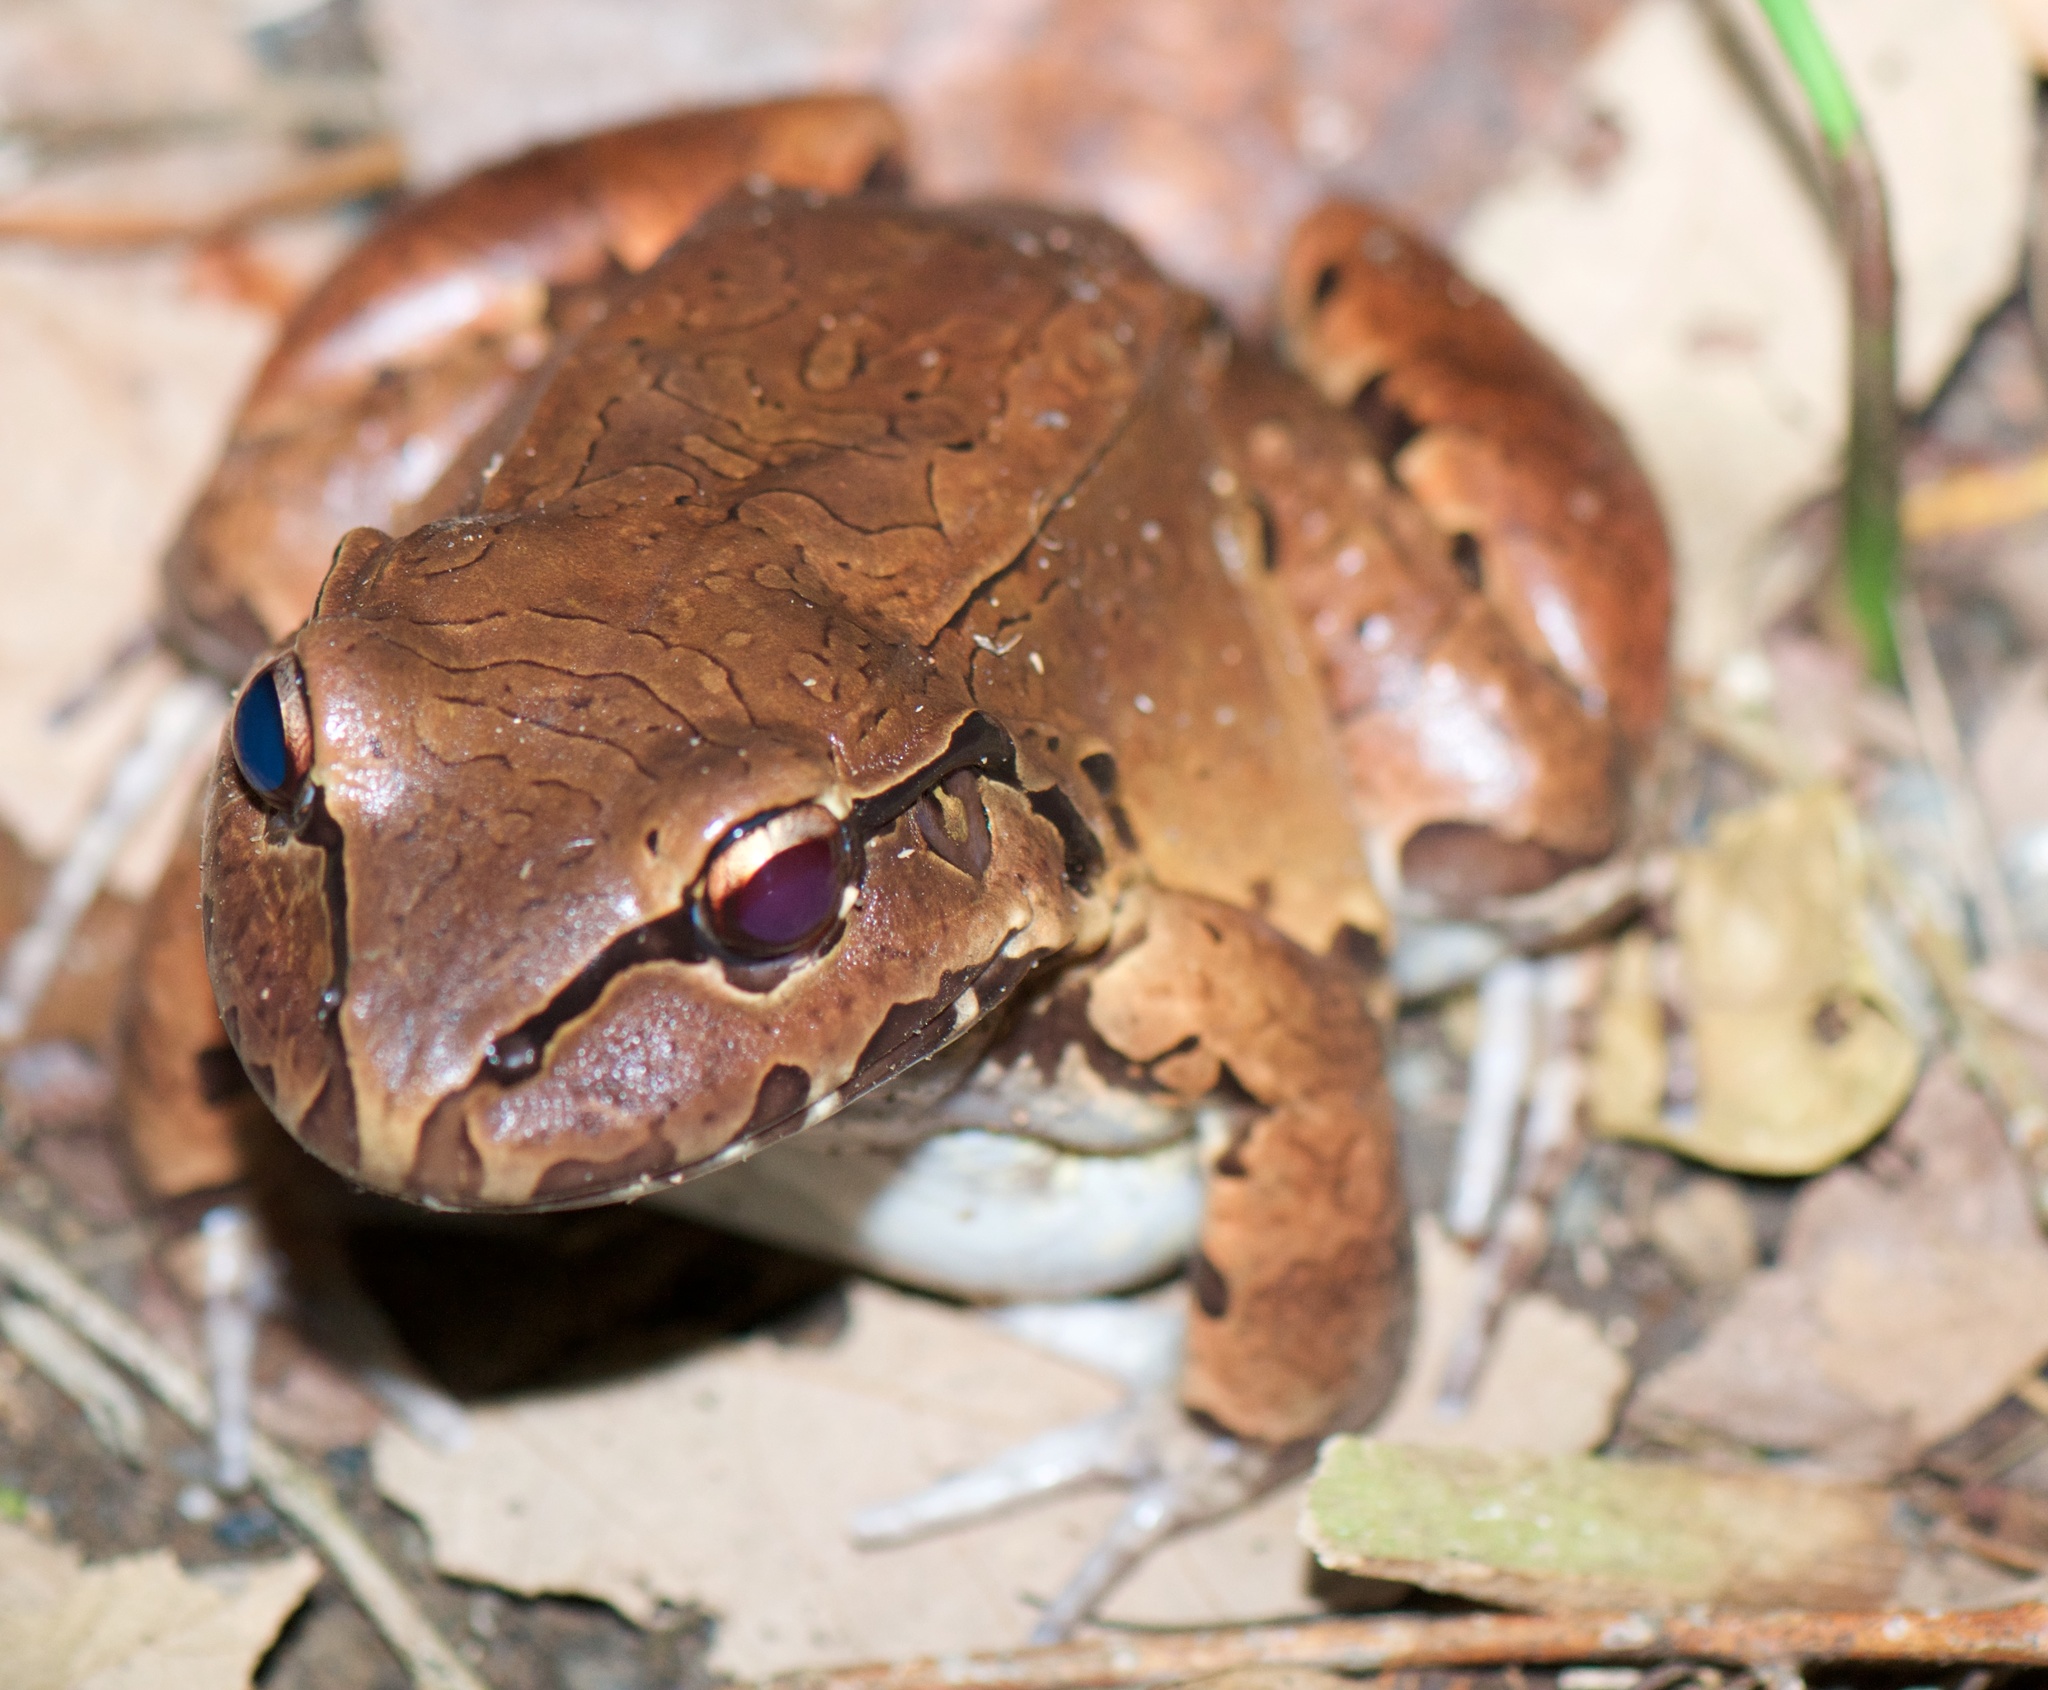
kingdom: Animalia
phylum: Chordata
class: Amphibia
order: Anura
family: Leptodactylidae
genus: Leptodactylus
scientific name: Leptodactylus savagei
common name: Savage's thin-toed frog
